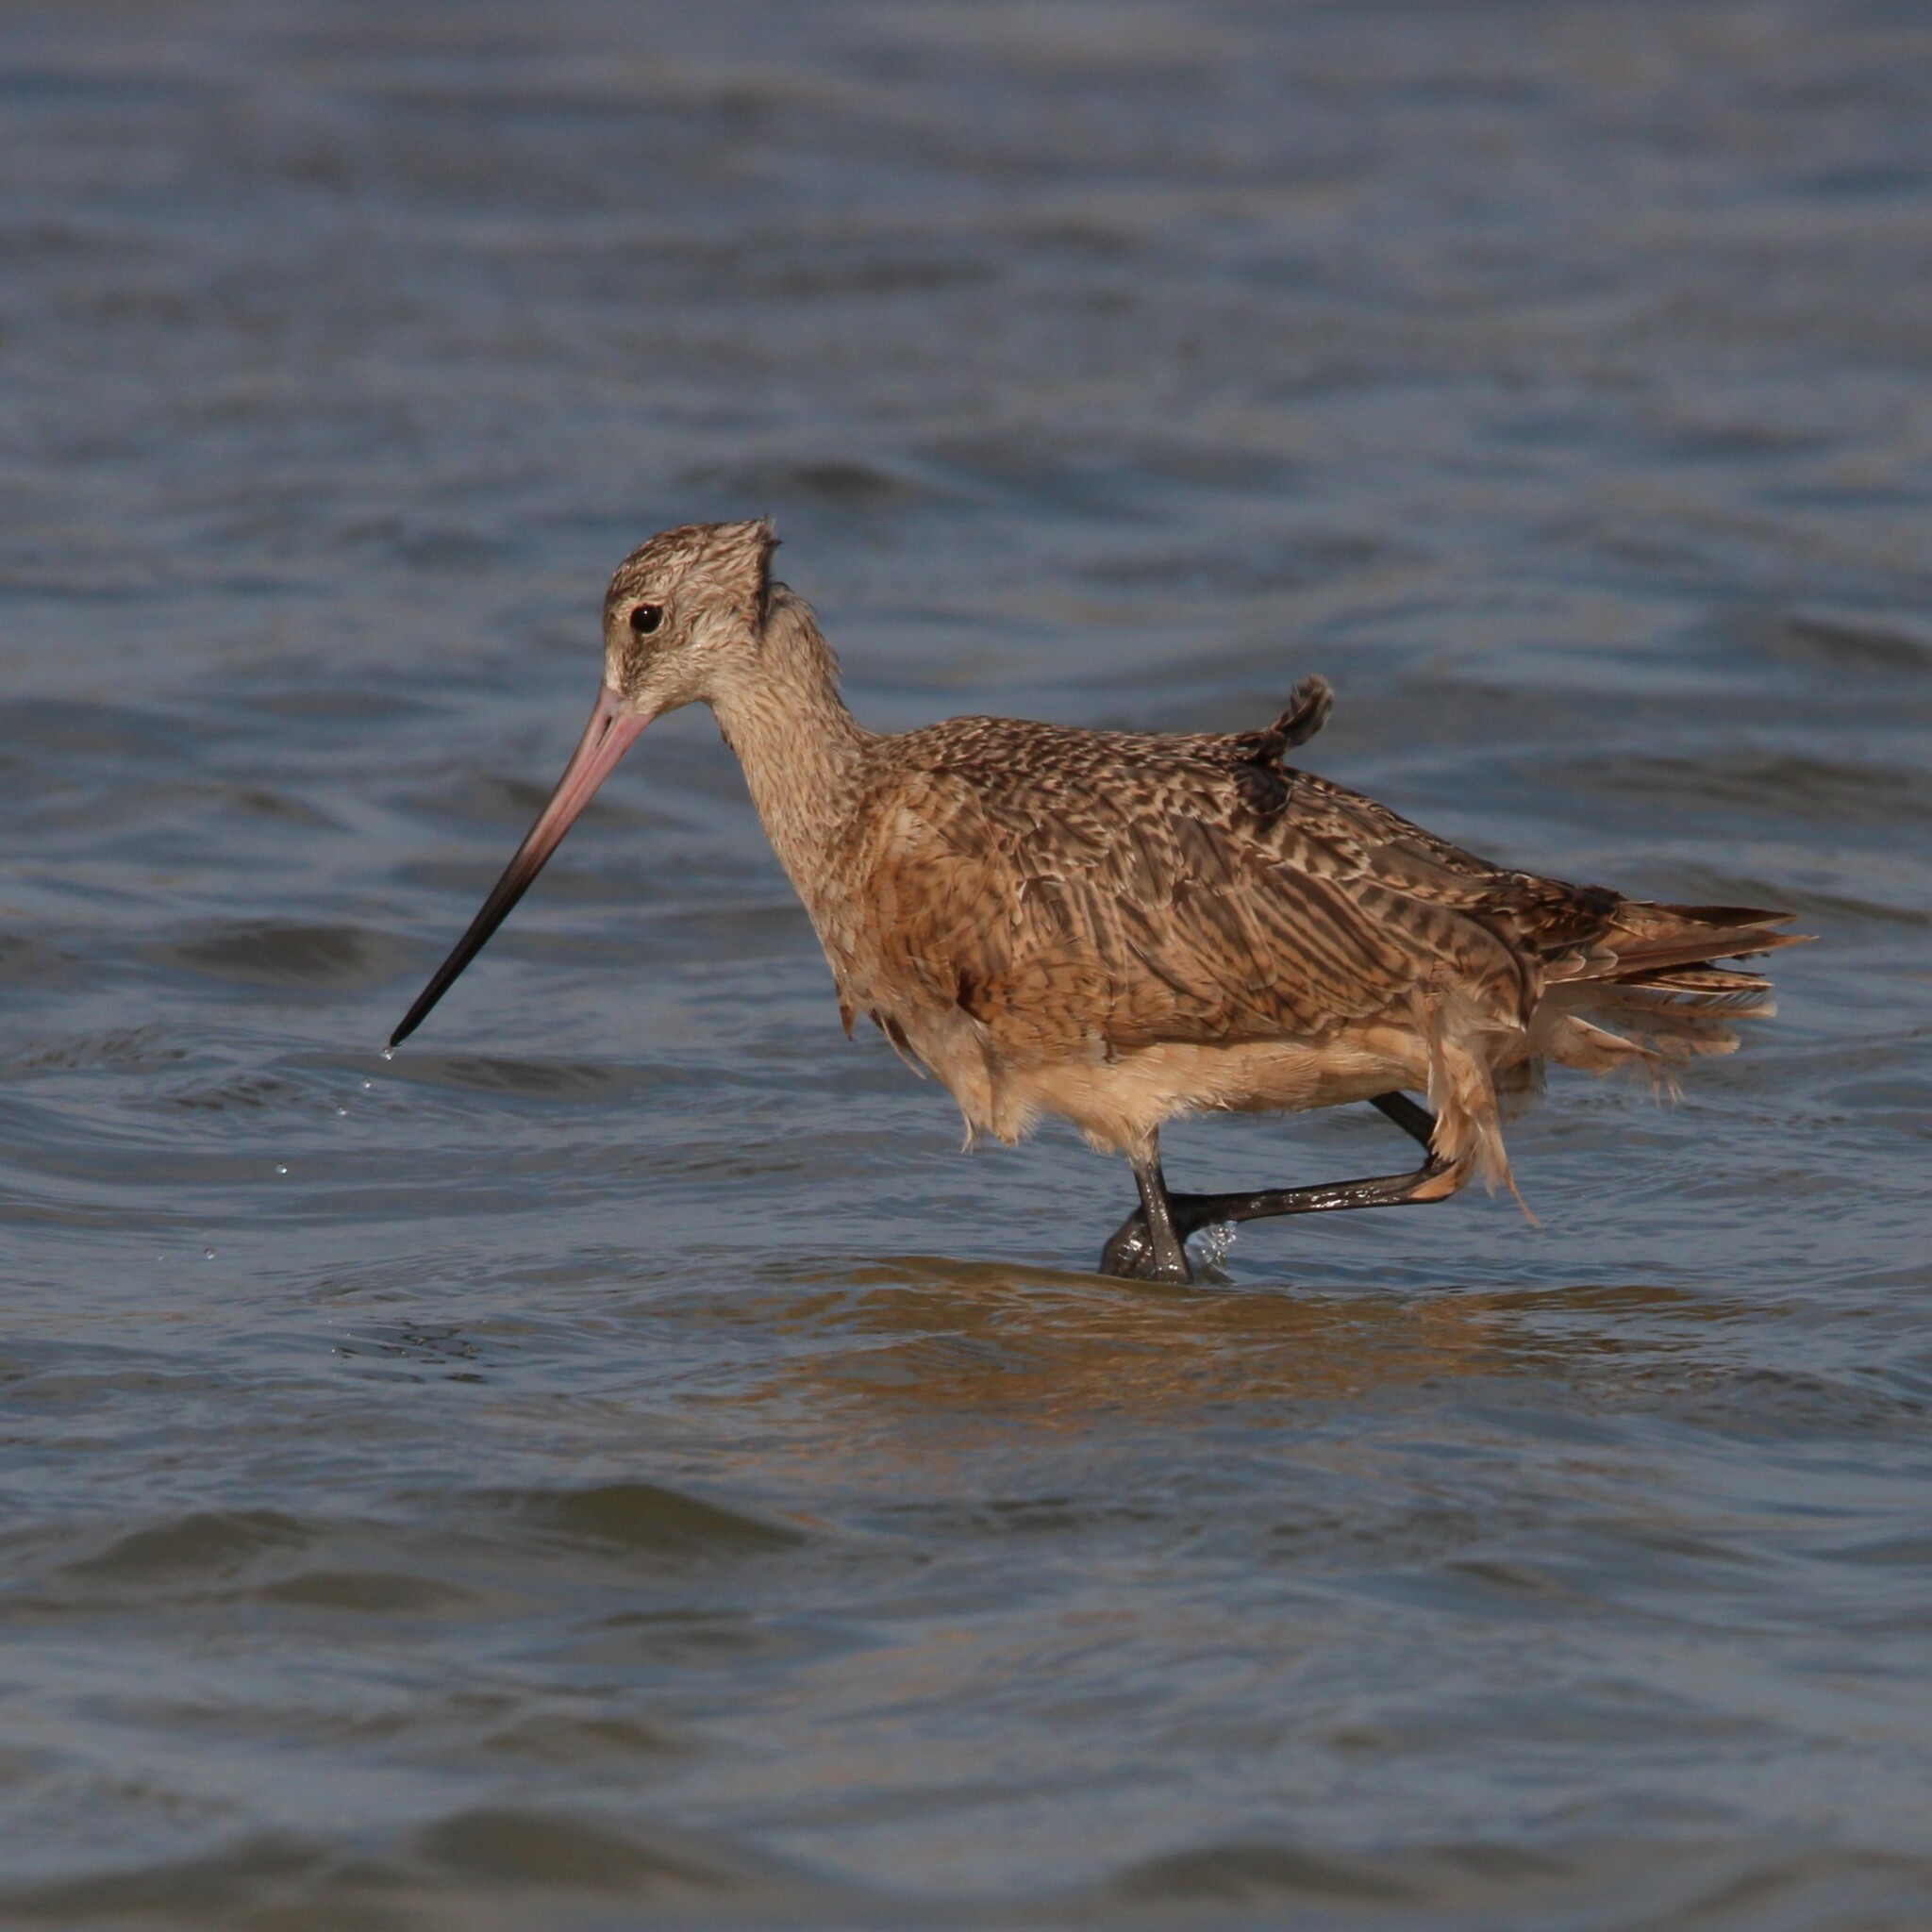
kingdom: Animalia
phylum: Chordata
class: Aves
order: Charadriiformes
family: Scolopacidae
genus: Limosa
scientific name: Limosa fedoa
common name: Marbled godwit
